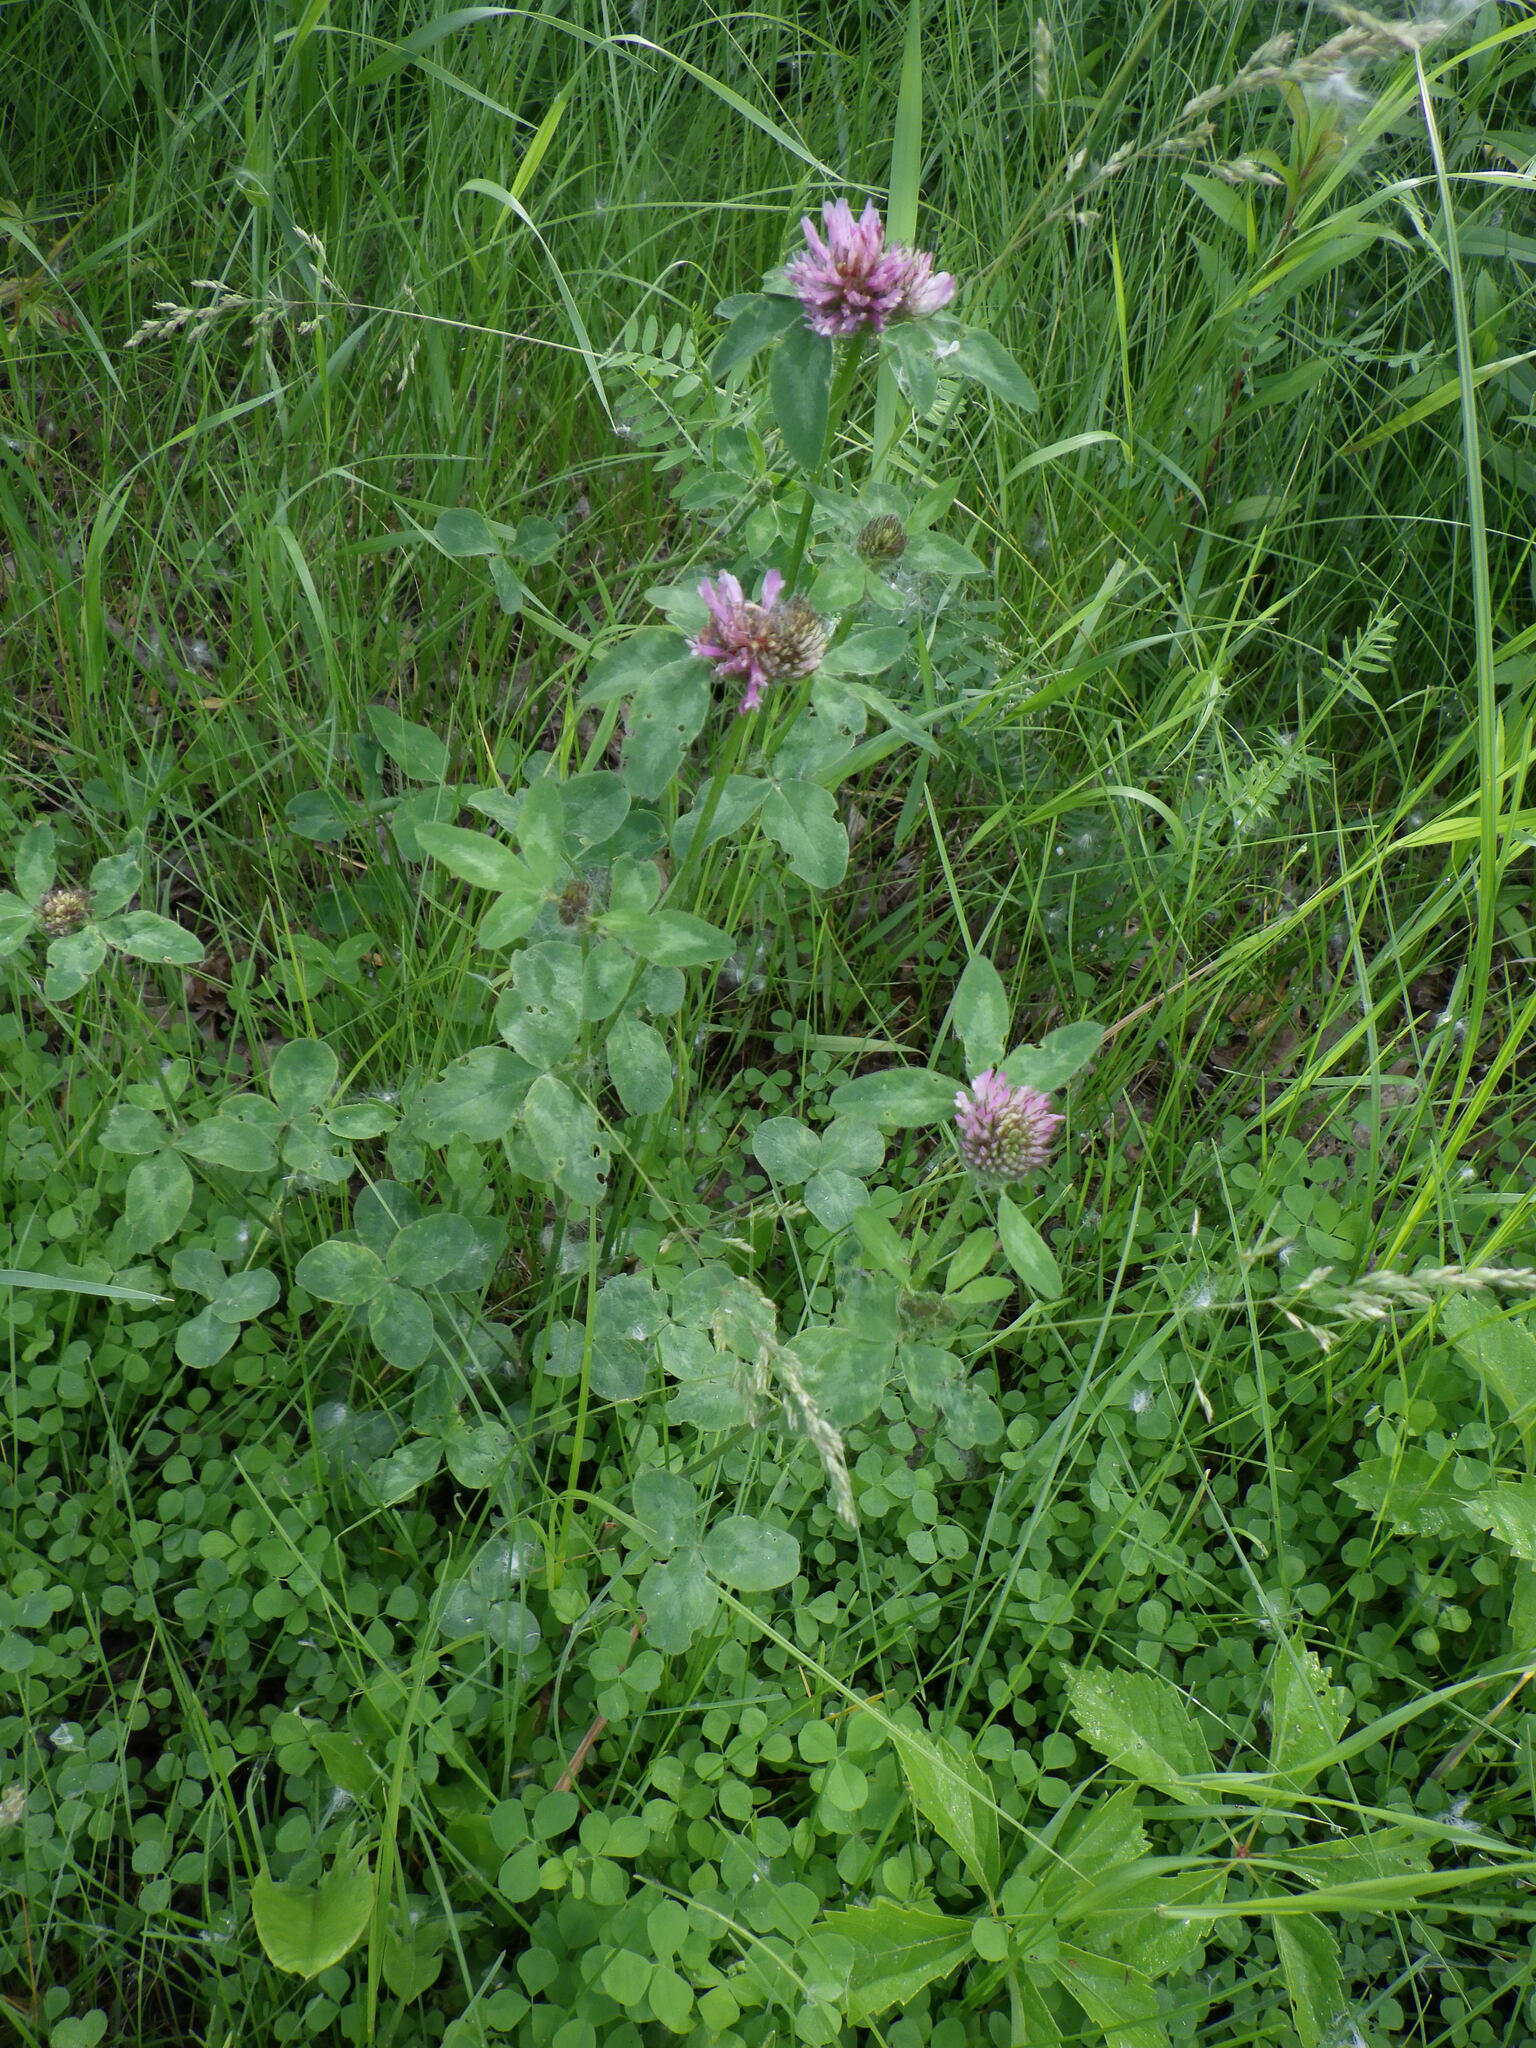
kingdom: Plantae
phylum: Tracheophyta
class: Magnoliopsida
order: Fabales
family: Fabaceae
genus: Trifolium
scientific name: Trifolium pratense
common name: Red clover
